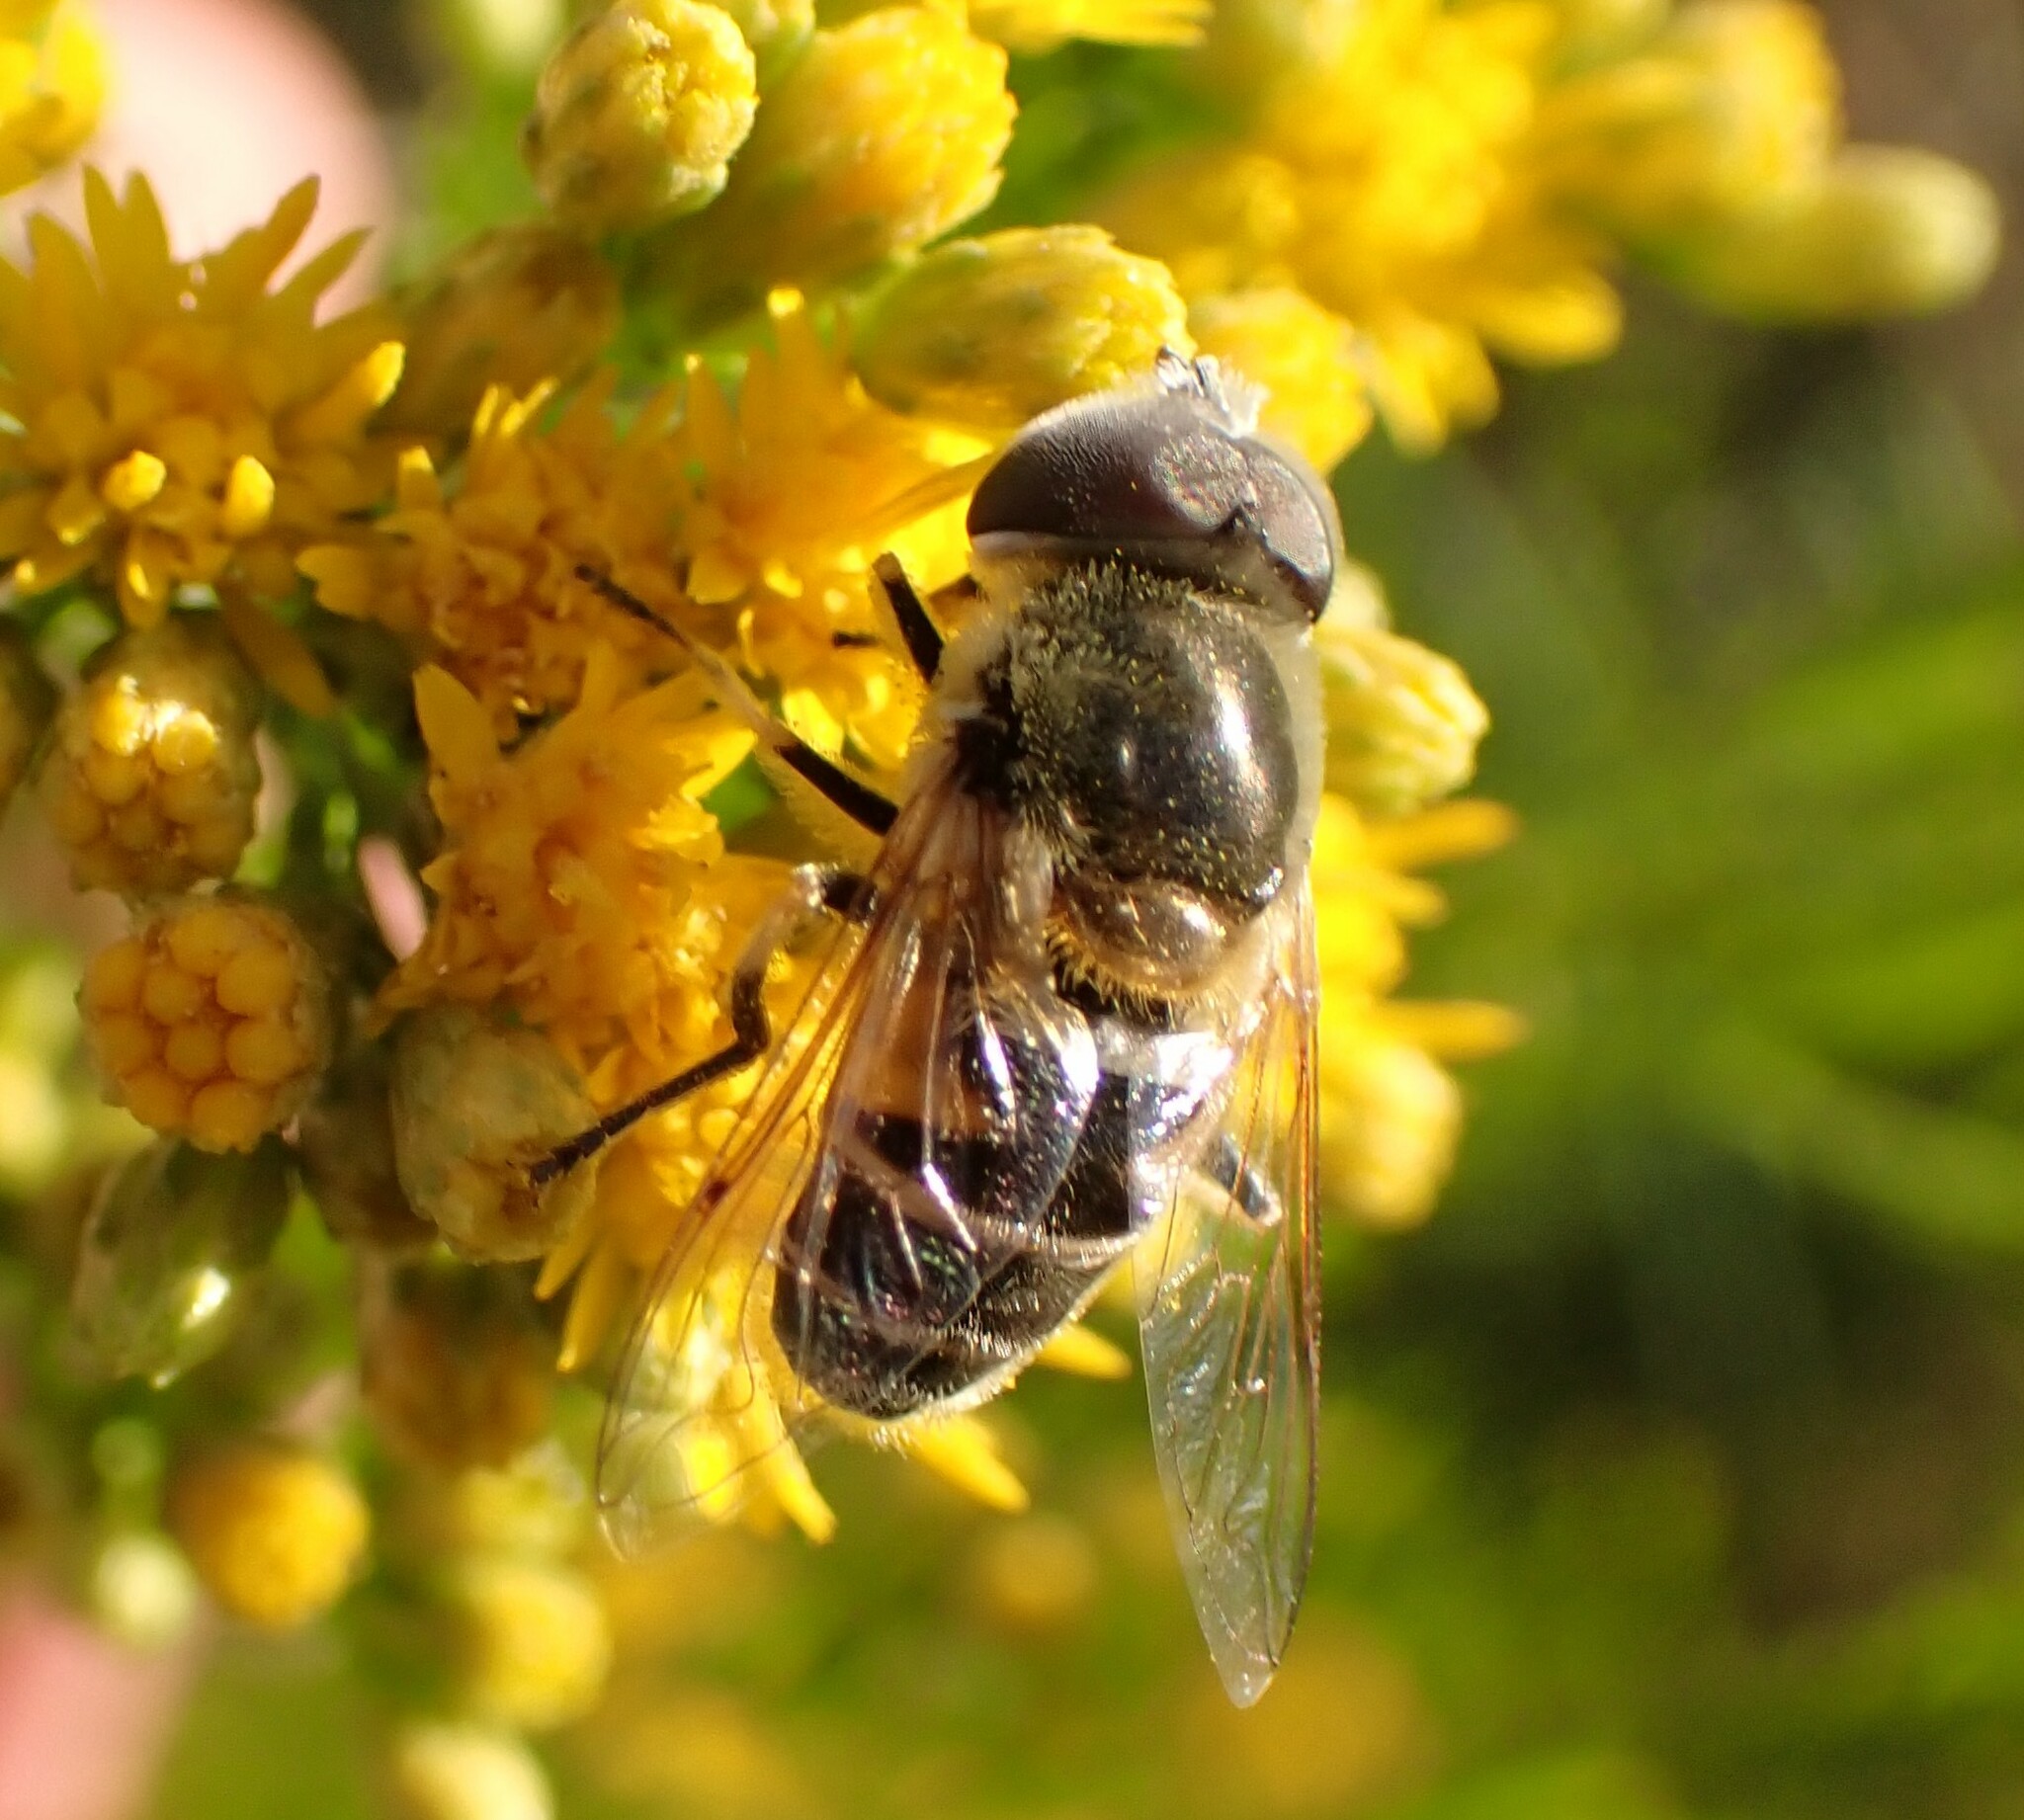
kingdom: Animalia
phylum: Arthropoda
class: Insecta
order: Diptera
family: Syrphidae
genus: Eristalis
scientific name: Eristalis stipator
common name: Yellow-shouldered drone fly
